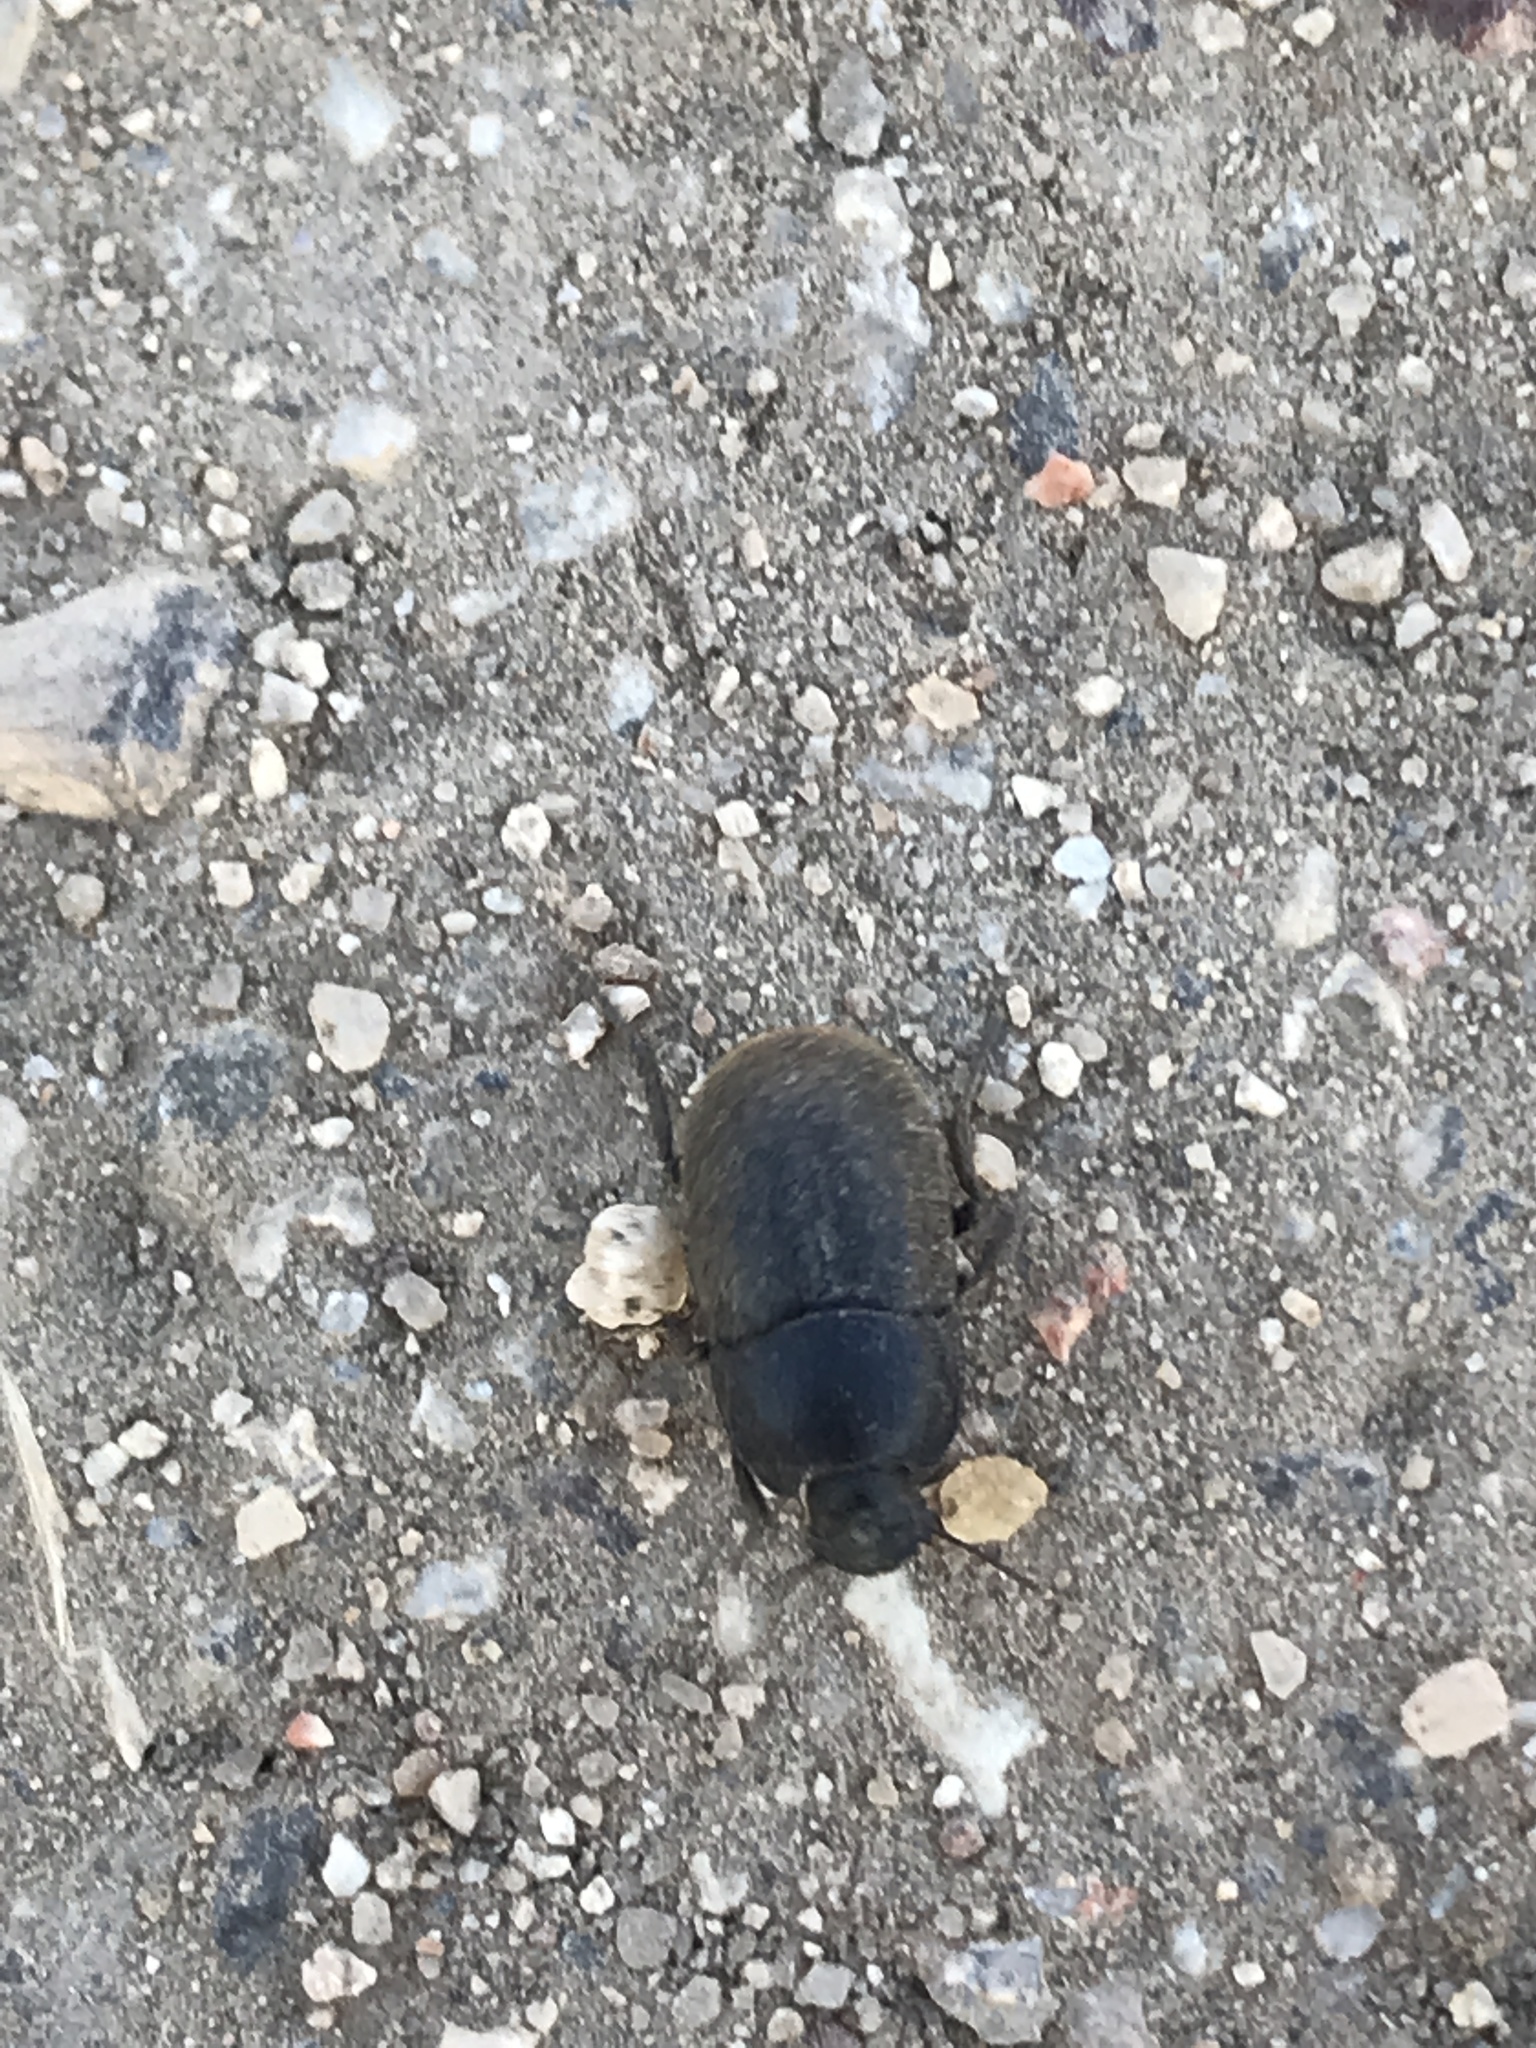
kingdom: Animalia
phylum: Arthropoda
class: Insecta
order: Coleoptera
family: Tenebrionidae
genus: Coniontis
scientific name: Coniontis
